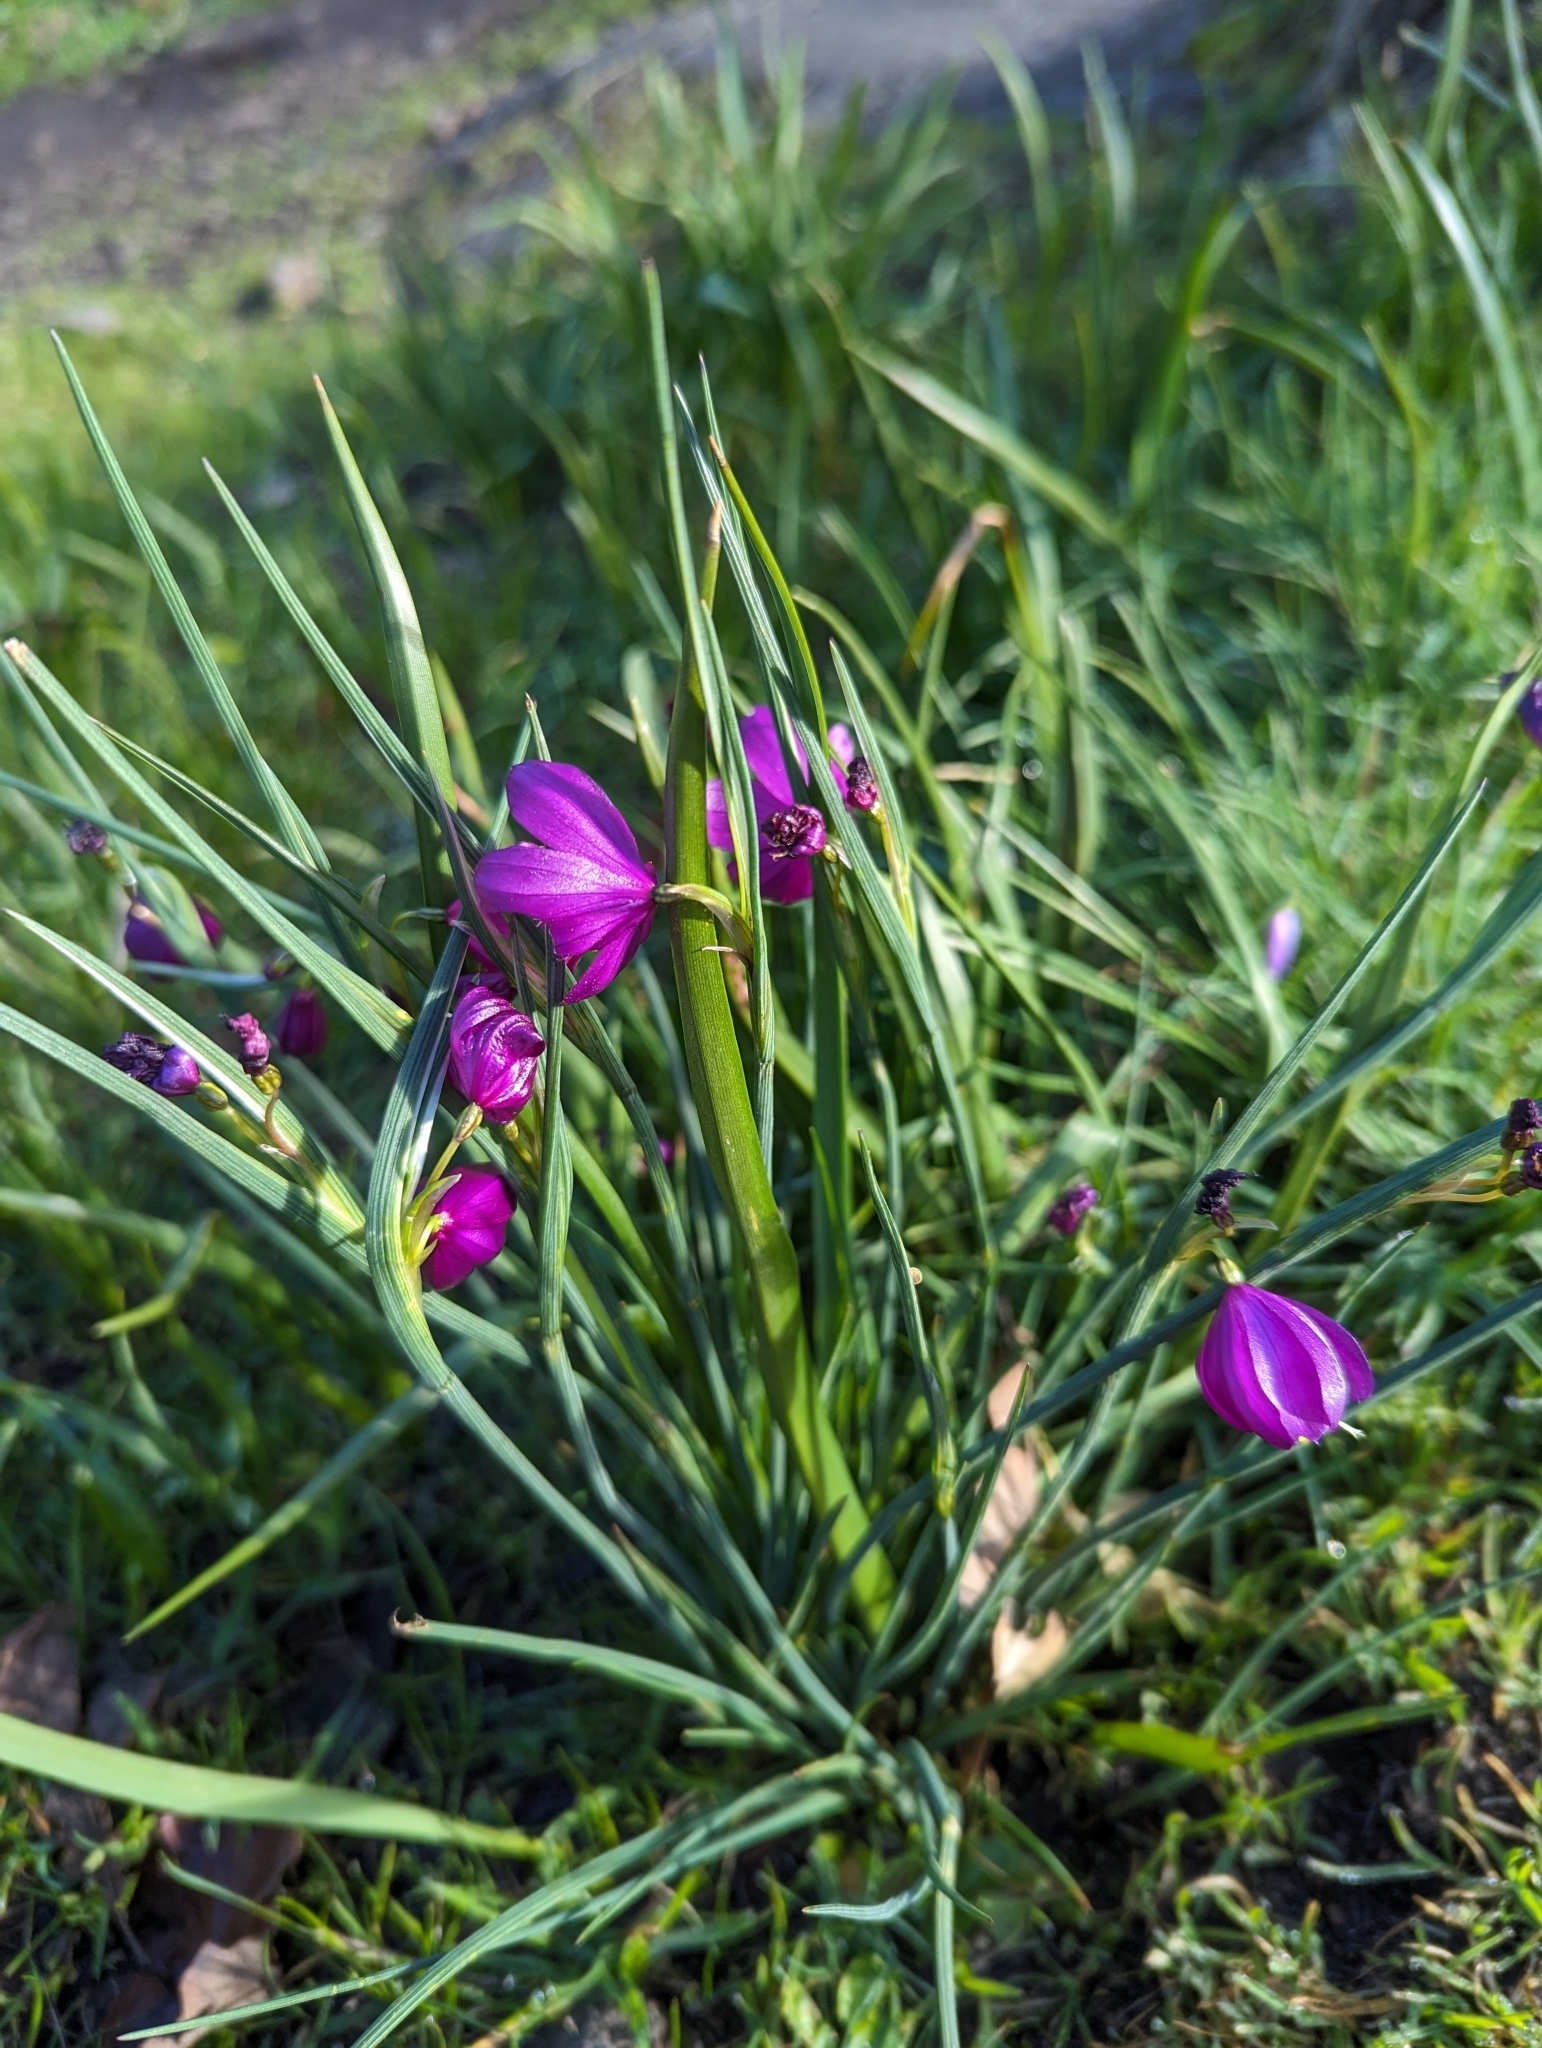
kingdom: Plantae
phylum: Tracheophyta
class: Liliopsida
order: Asparagales
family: Iridaceae
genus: Olsynium
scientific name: Olsynium douglasii
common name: Douglas' grasswidow
